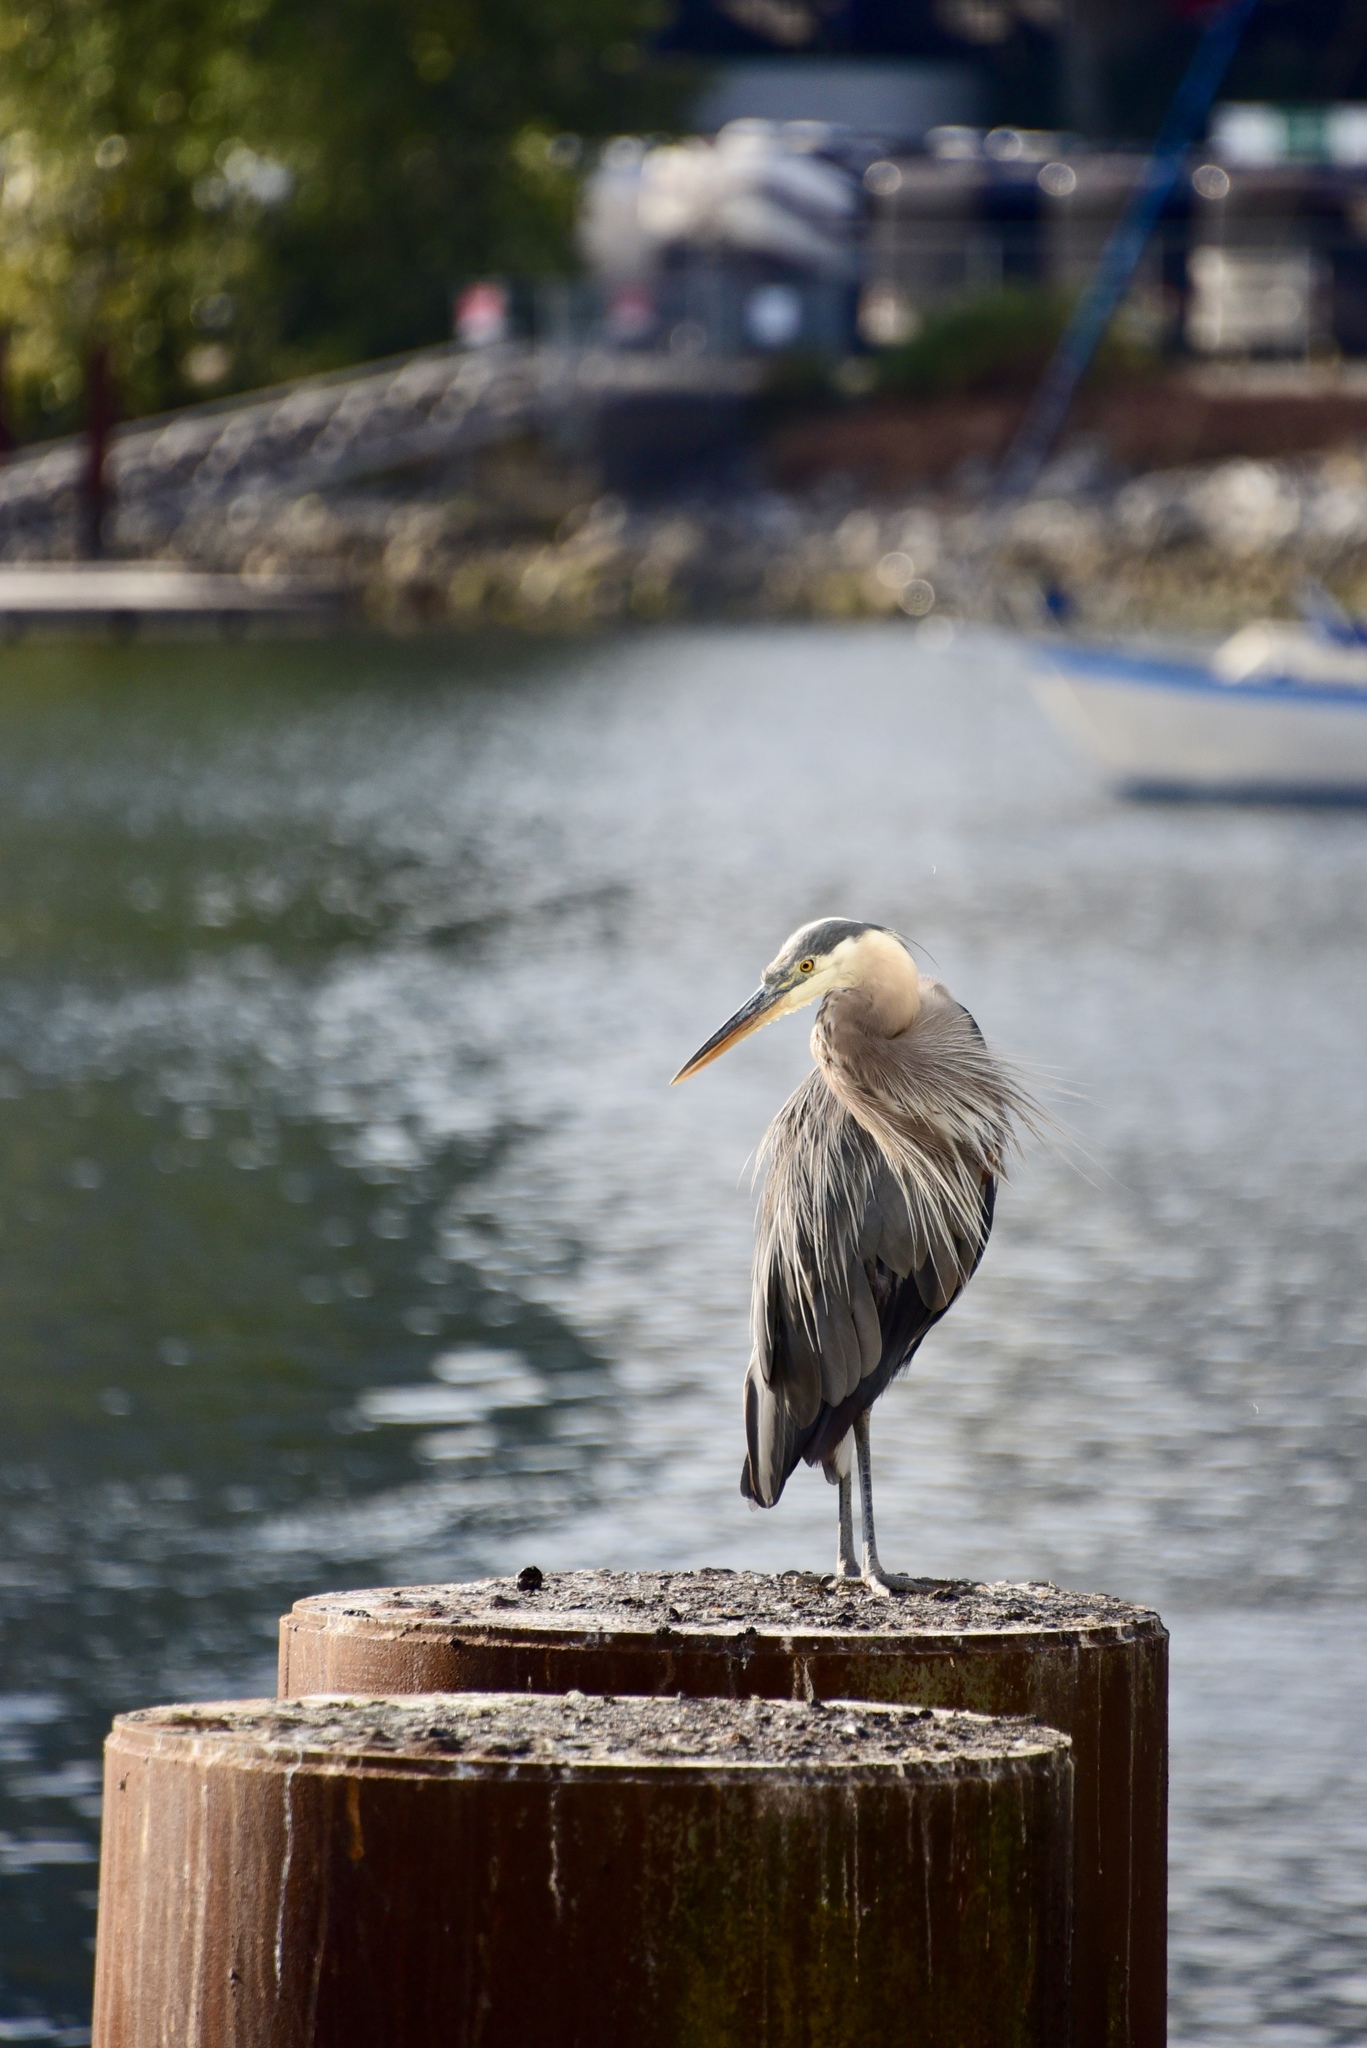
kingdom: Animalia
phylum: Chordata
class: Aves
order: Pelecaniformes
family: Ardeidae
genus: Ardea
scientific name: Ardea herodias
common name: Great blue heron
